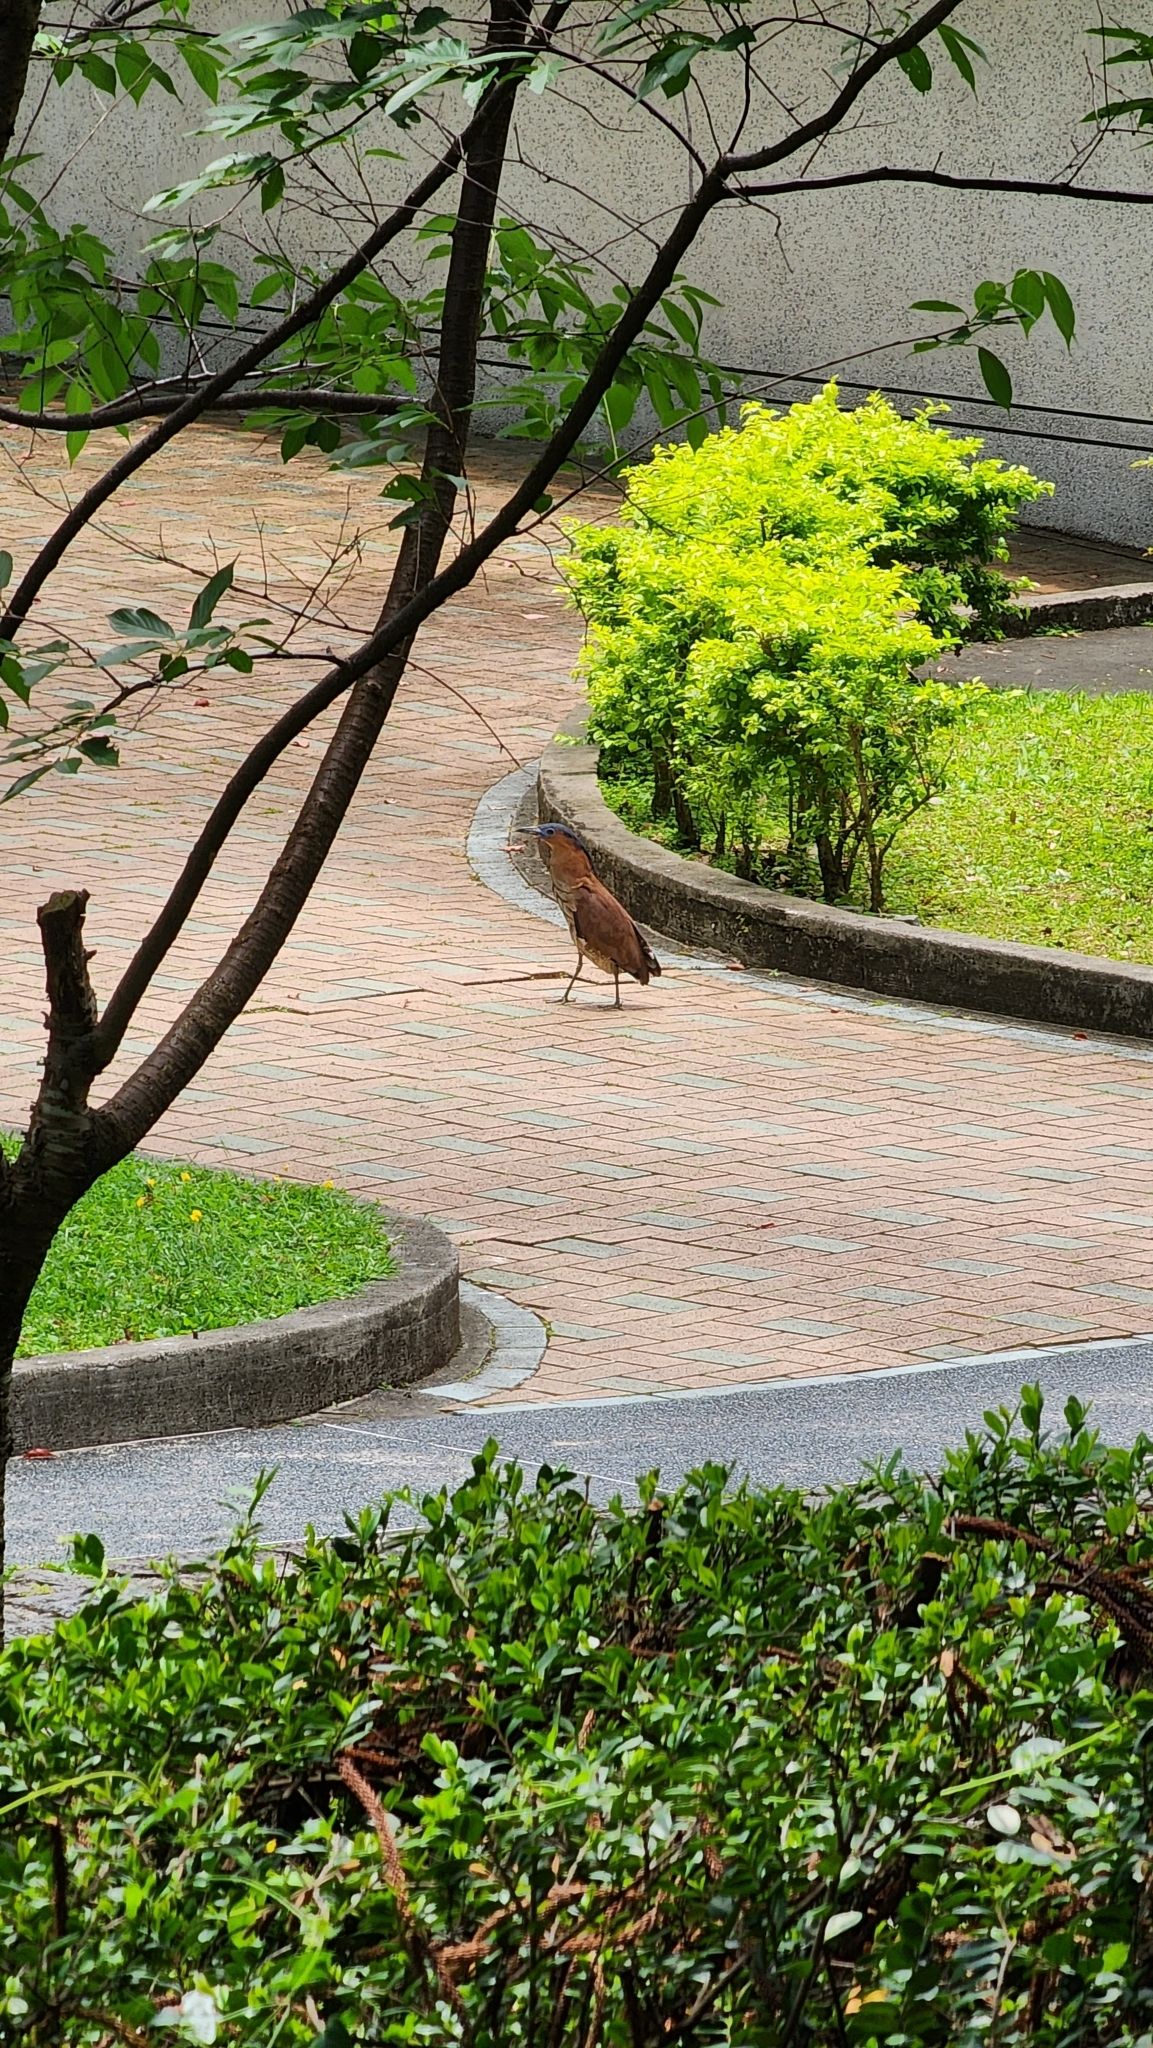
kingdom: Animalia
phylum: Chordata
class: Aves
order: Pelecaniformes
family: Ardeidae
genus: Gorsachius
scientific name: Gorsachius melanolophus
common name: Malayan night heron
